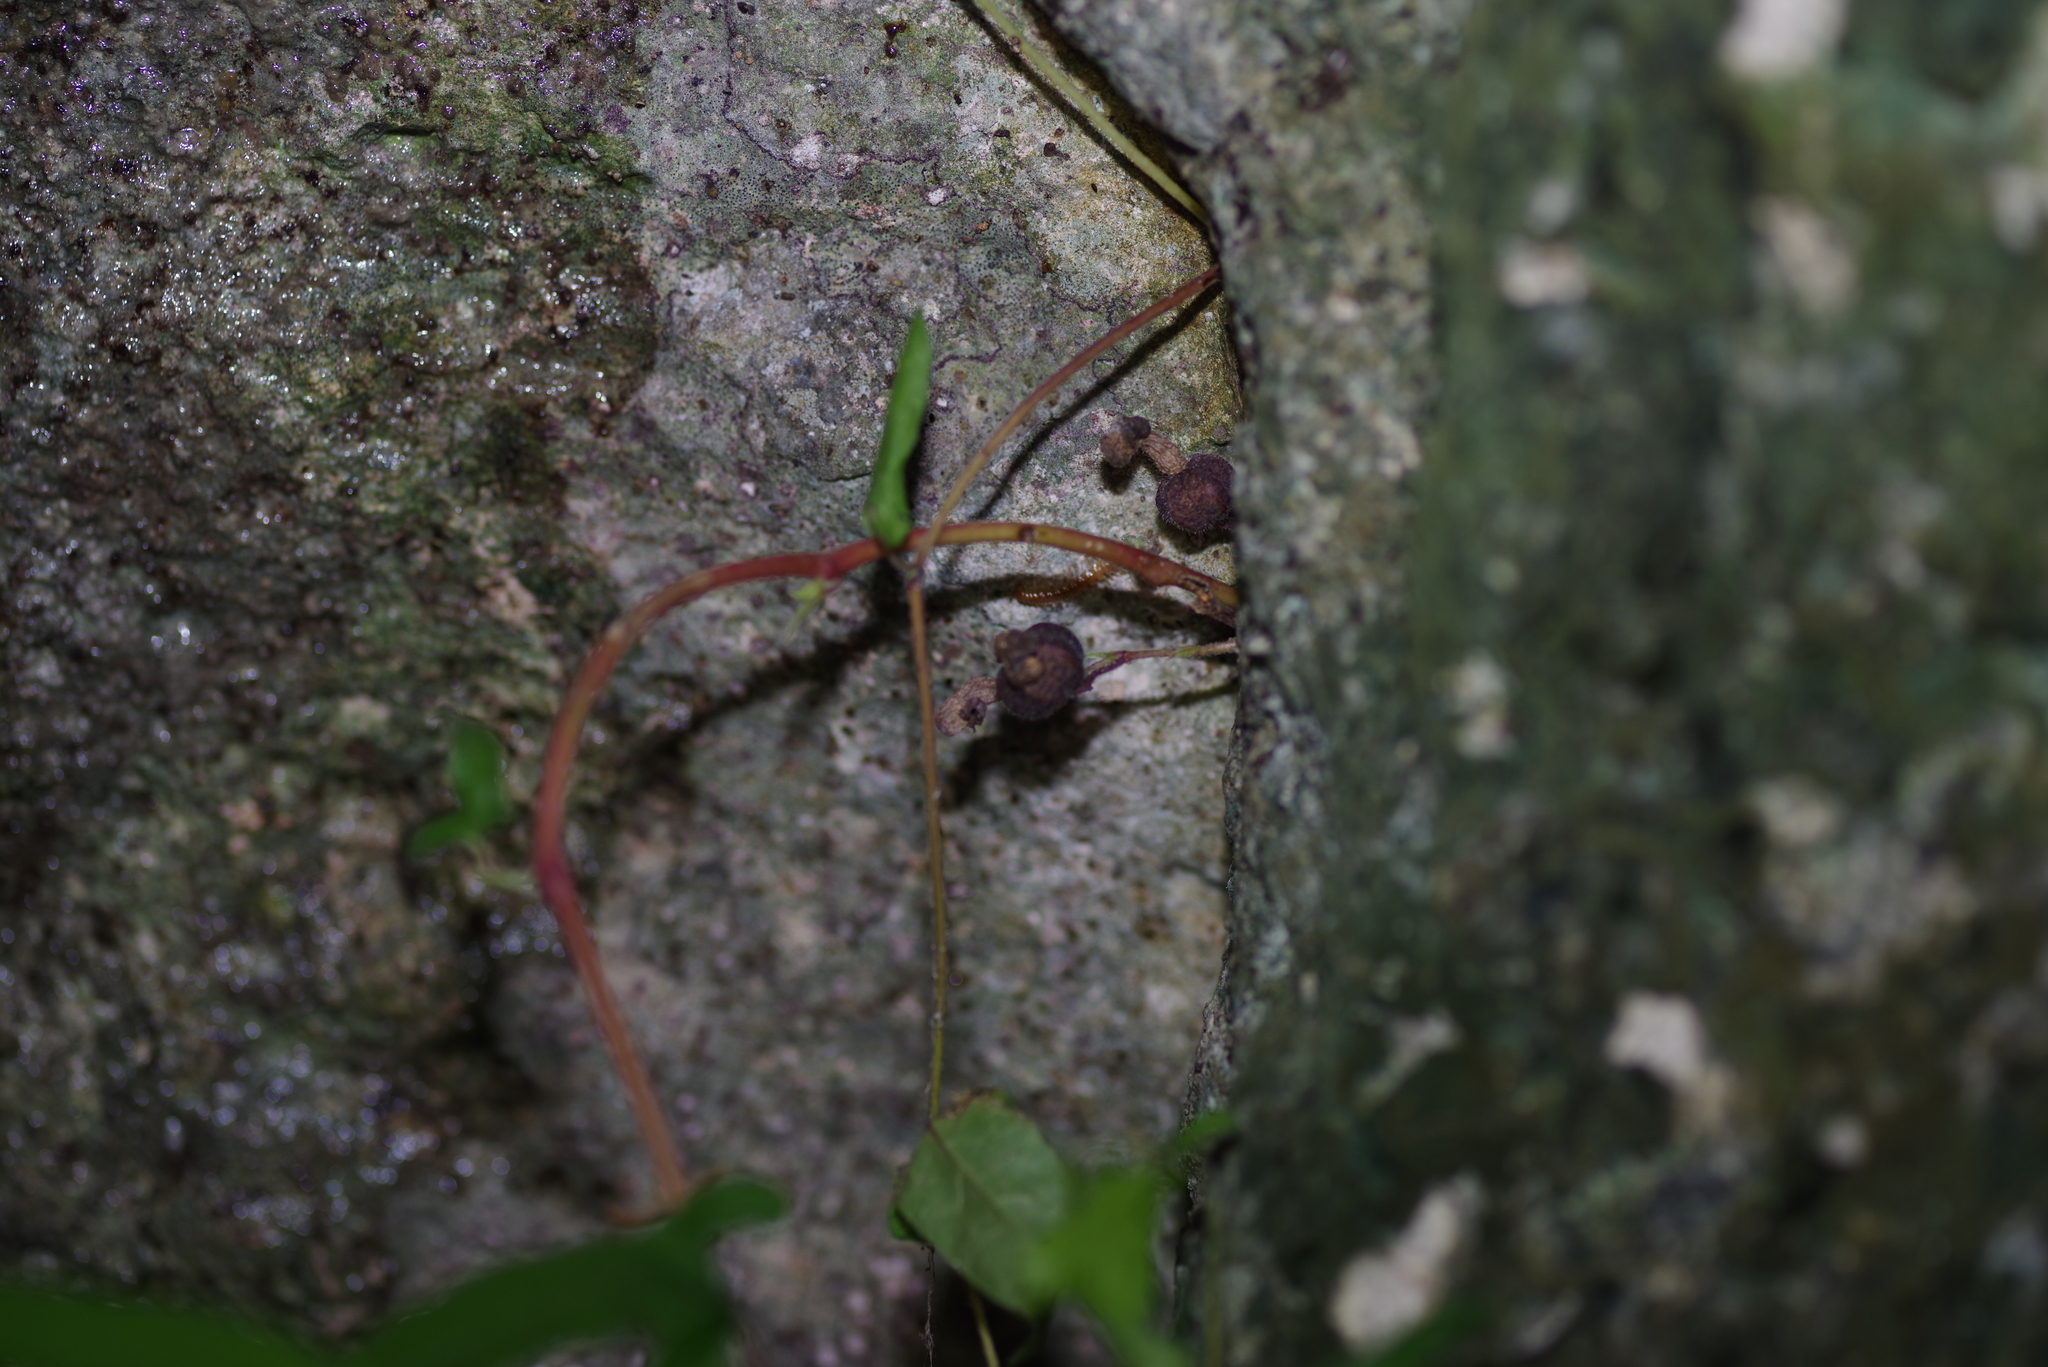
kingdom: Plantae
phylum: Tracheophyta
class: Magnoliopsida
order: Piperales
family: Aristolochiaceae
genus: Endodeca
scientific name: Endodeca serpentaria
